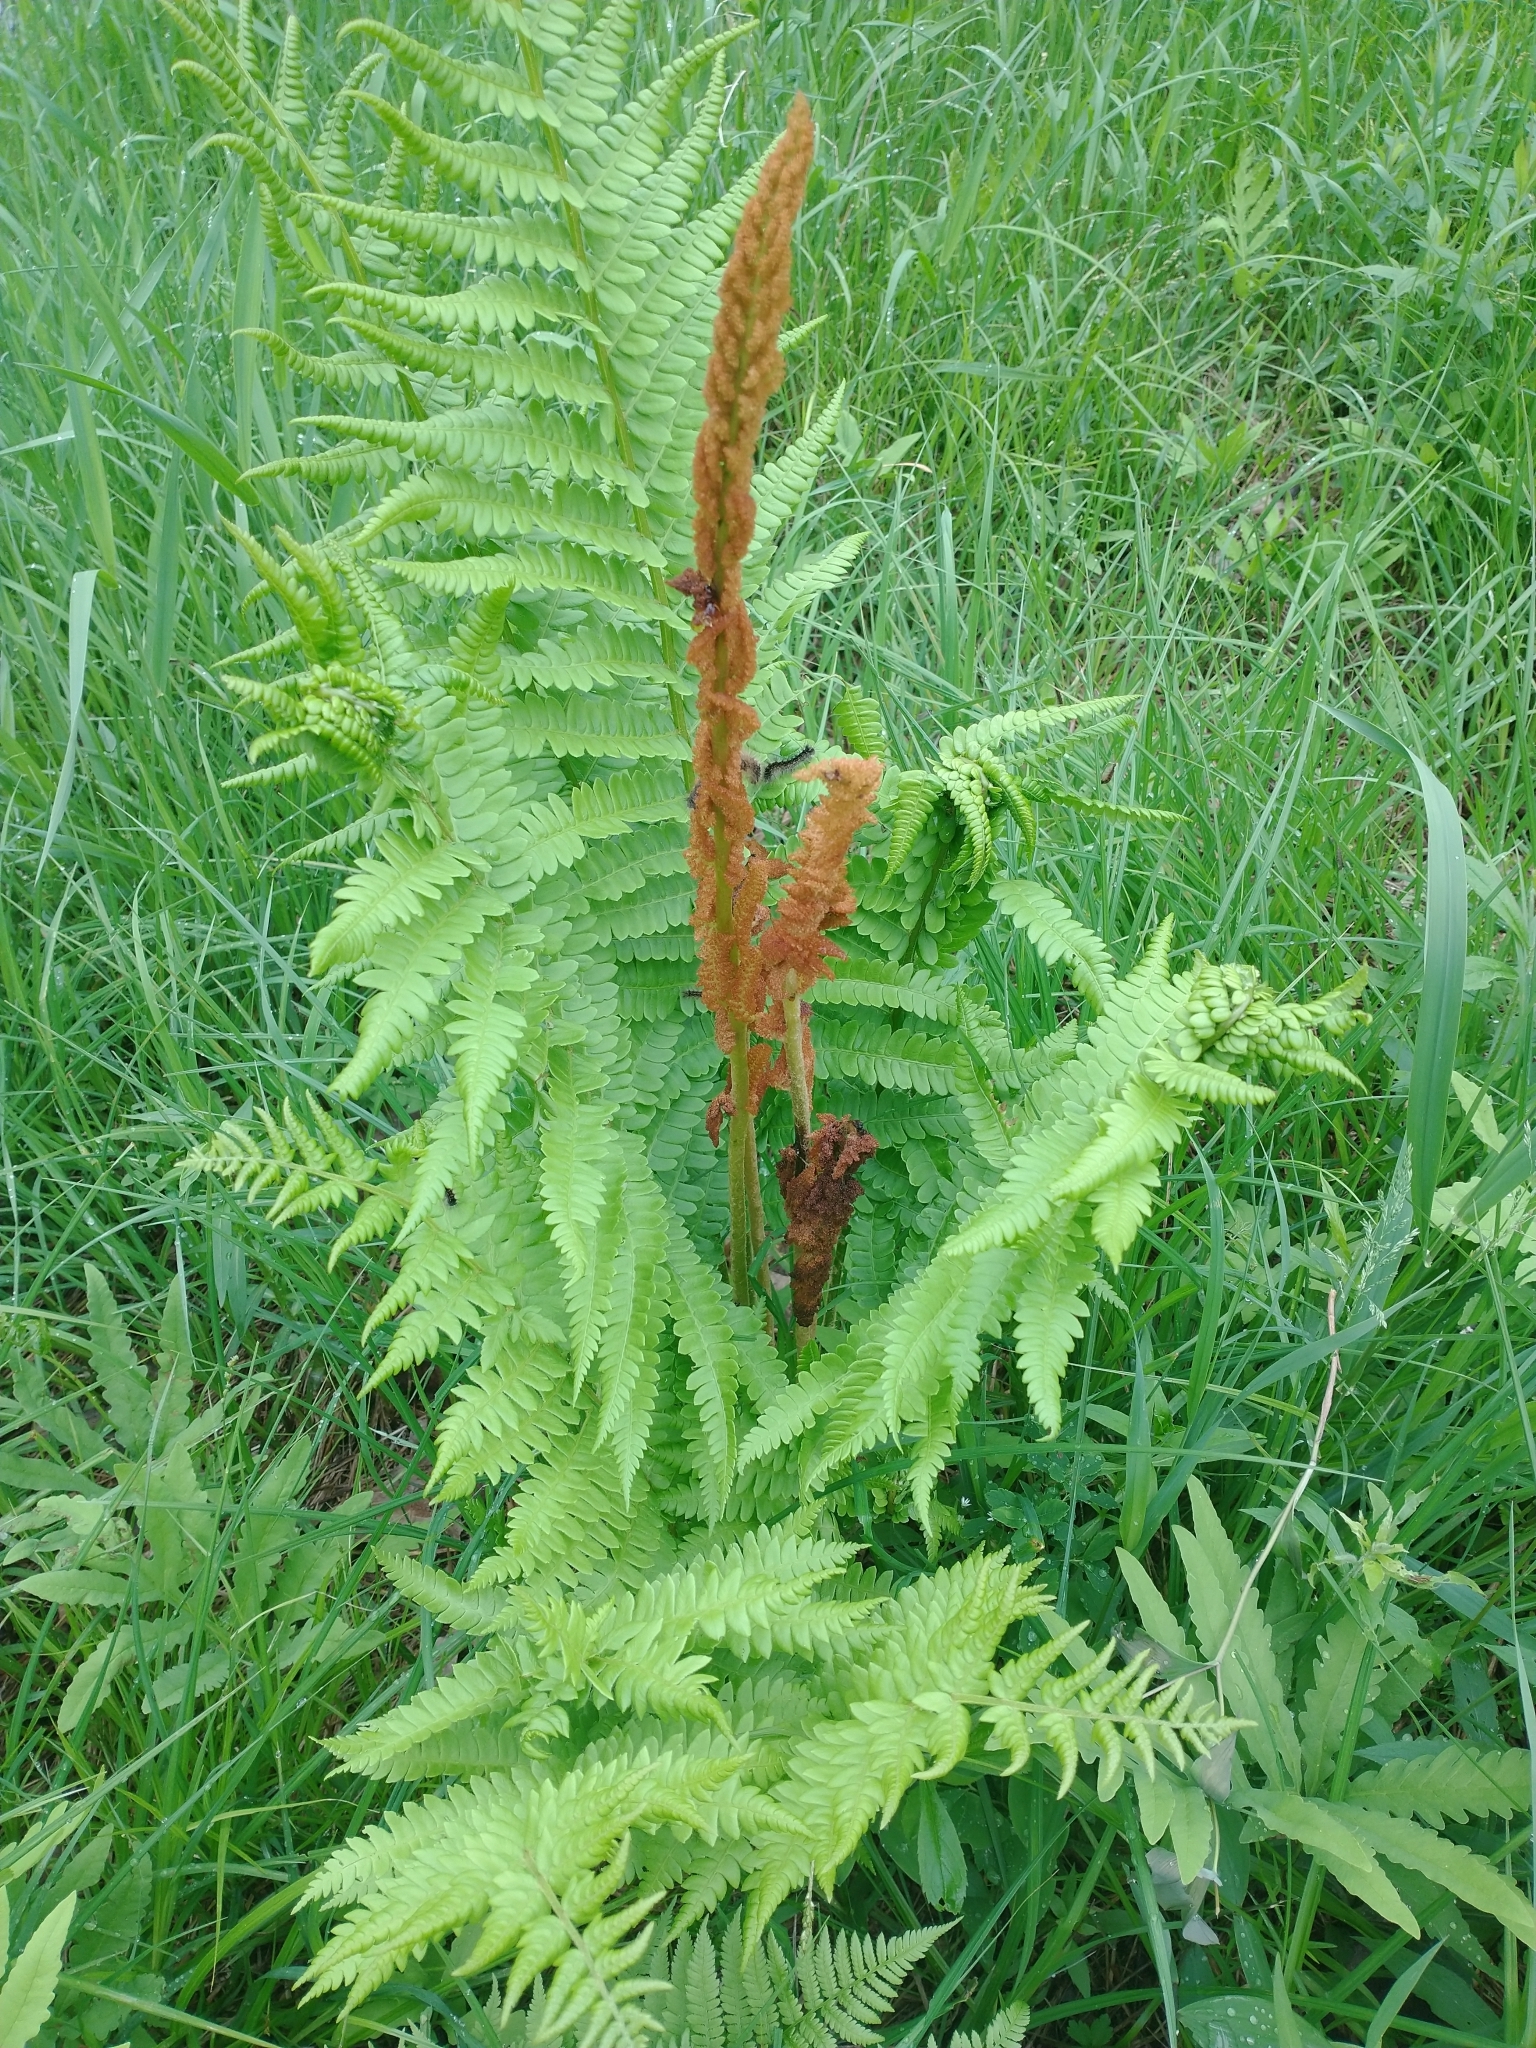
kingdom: Plantae
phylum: Tracheophyta
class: Polypodiopsida
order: Osmundales
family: Osmundaceae
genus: Osmundastrum
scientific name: Osmundastrum cinnamomeum
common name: Cinnamon fern
